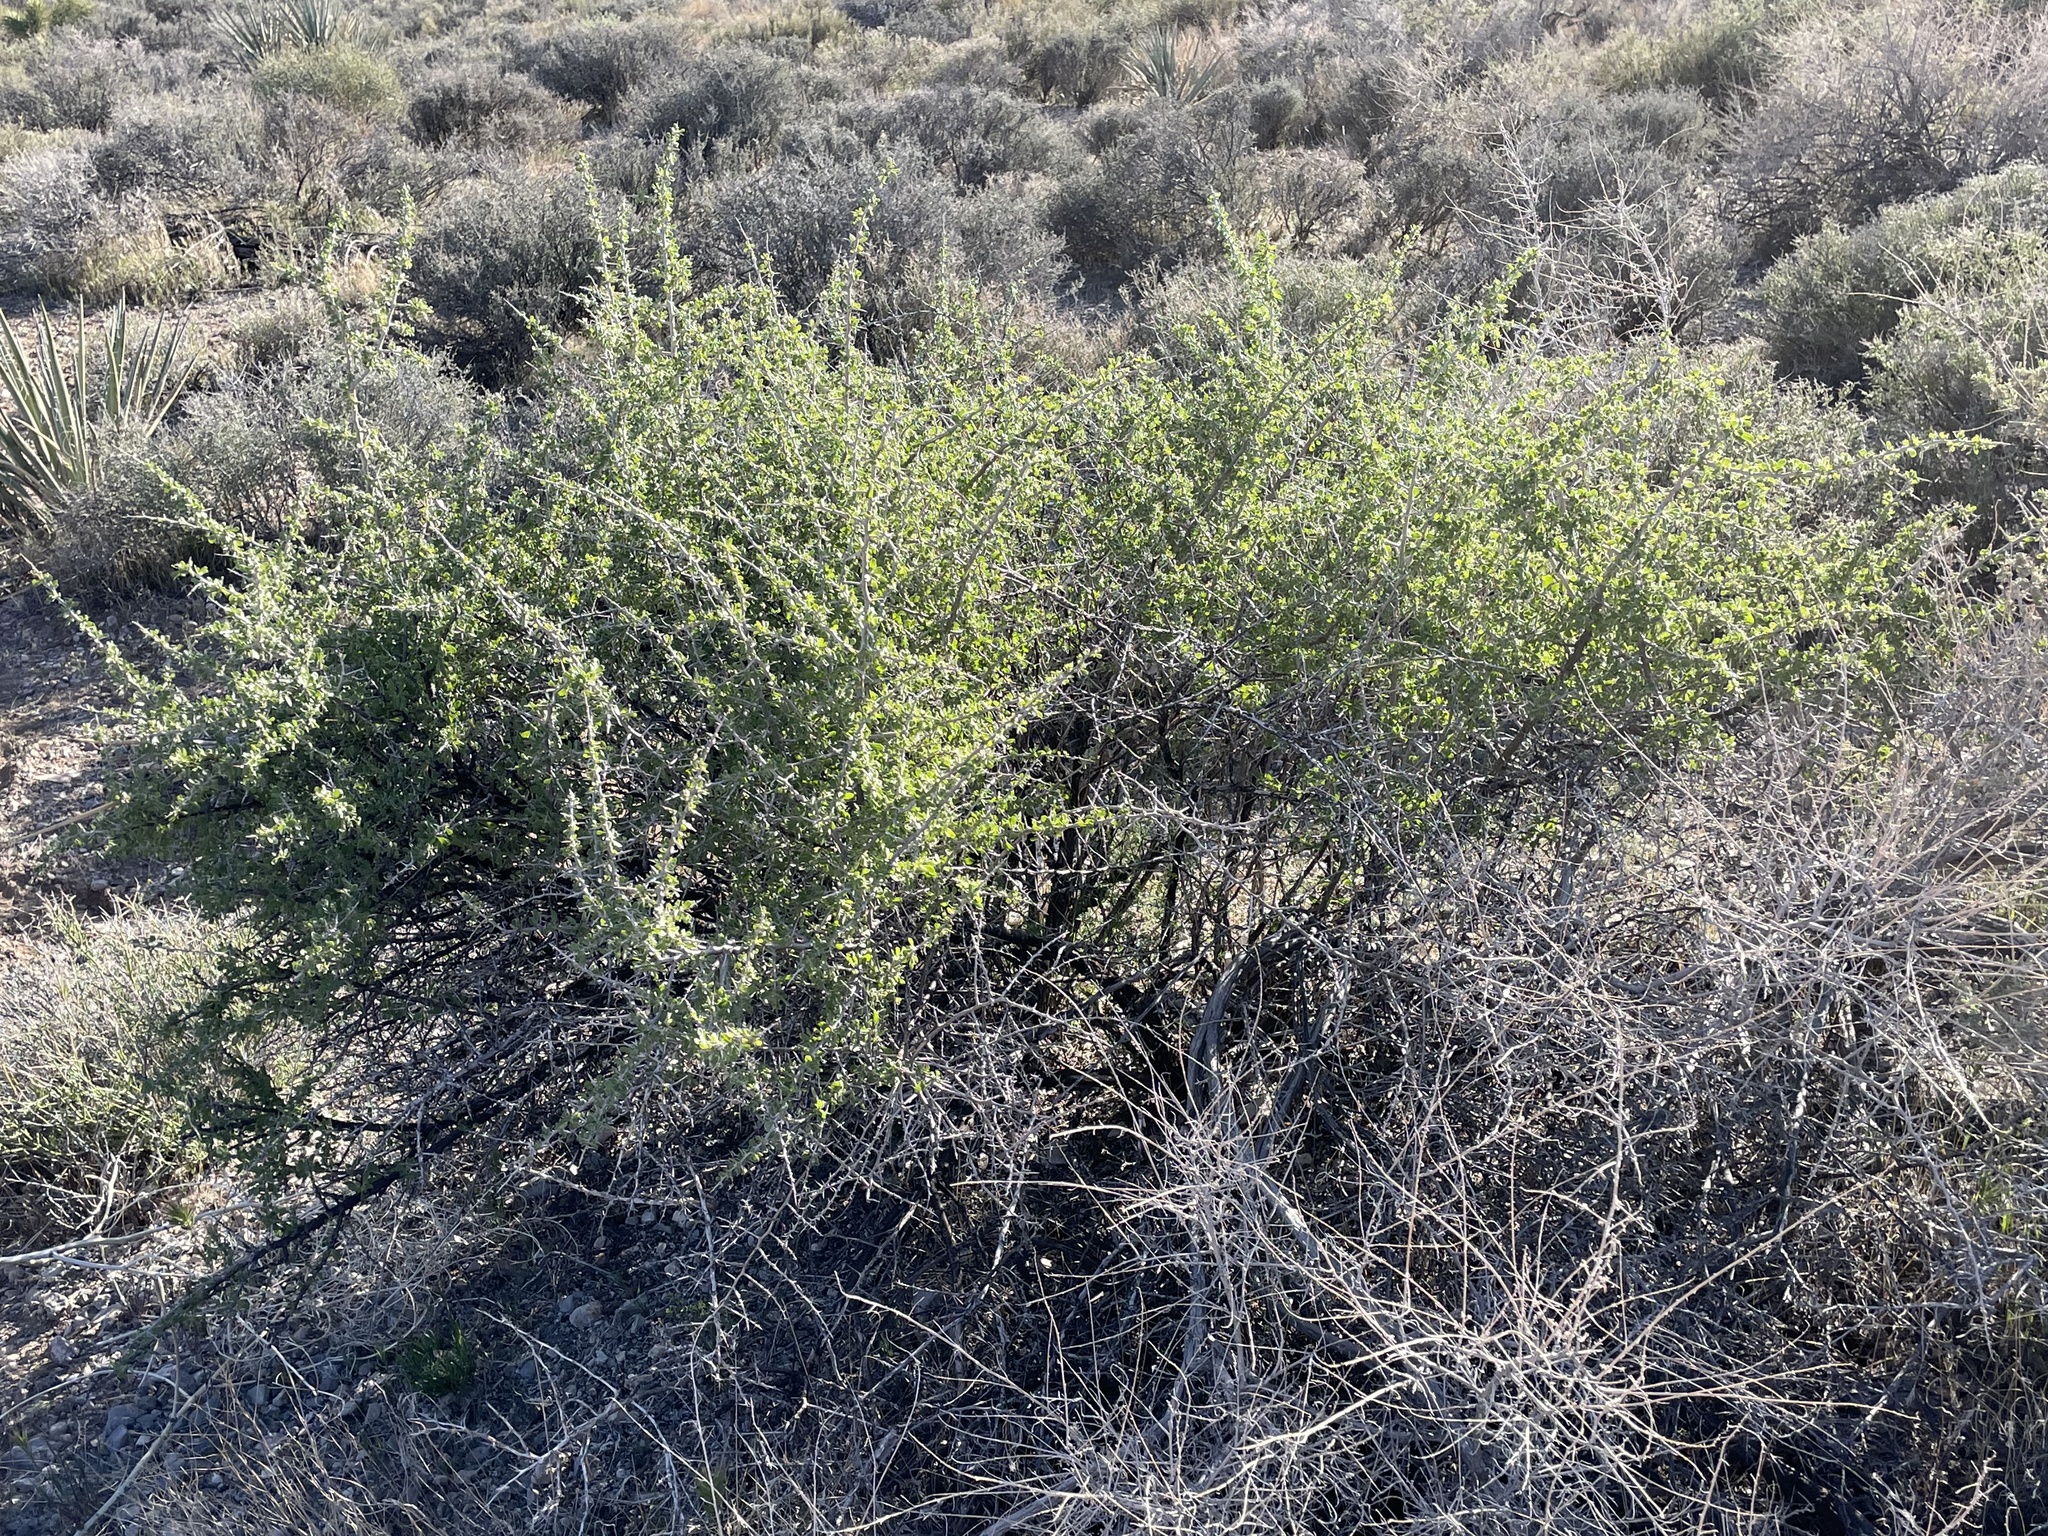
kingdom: Plantae
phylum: Tracheophyta
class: Magnoliopsida
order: Solanales
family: Solanaceae
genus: Lycium
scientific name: Lycium cooperi
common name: Peachthorn
